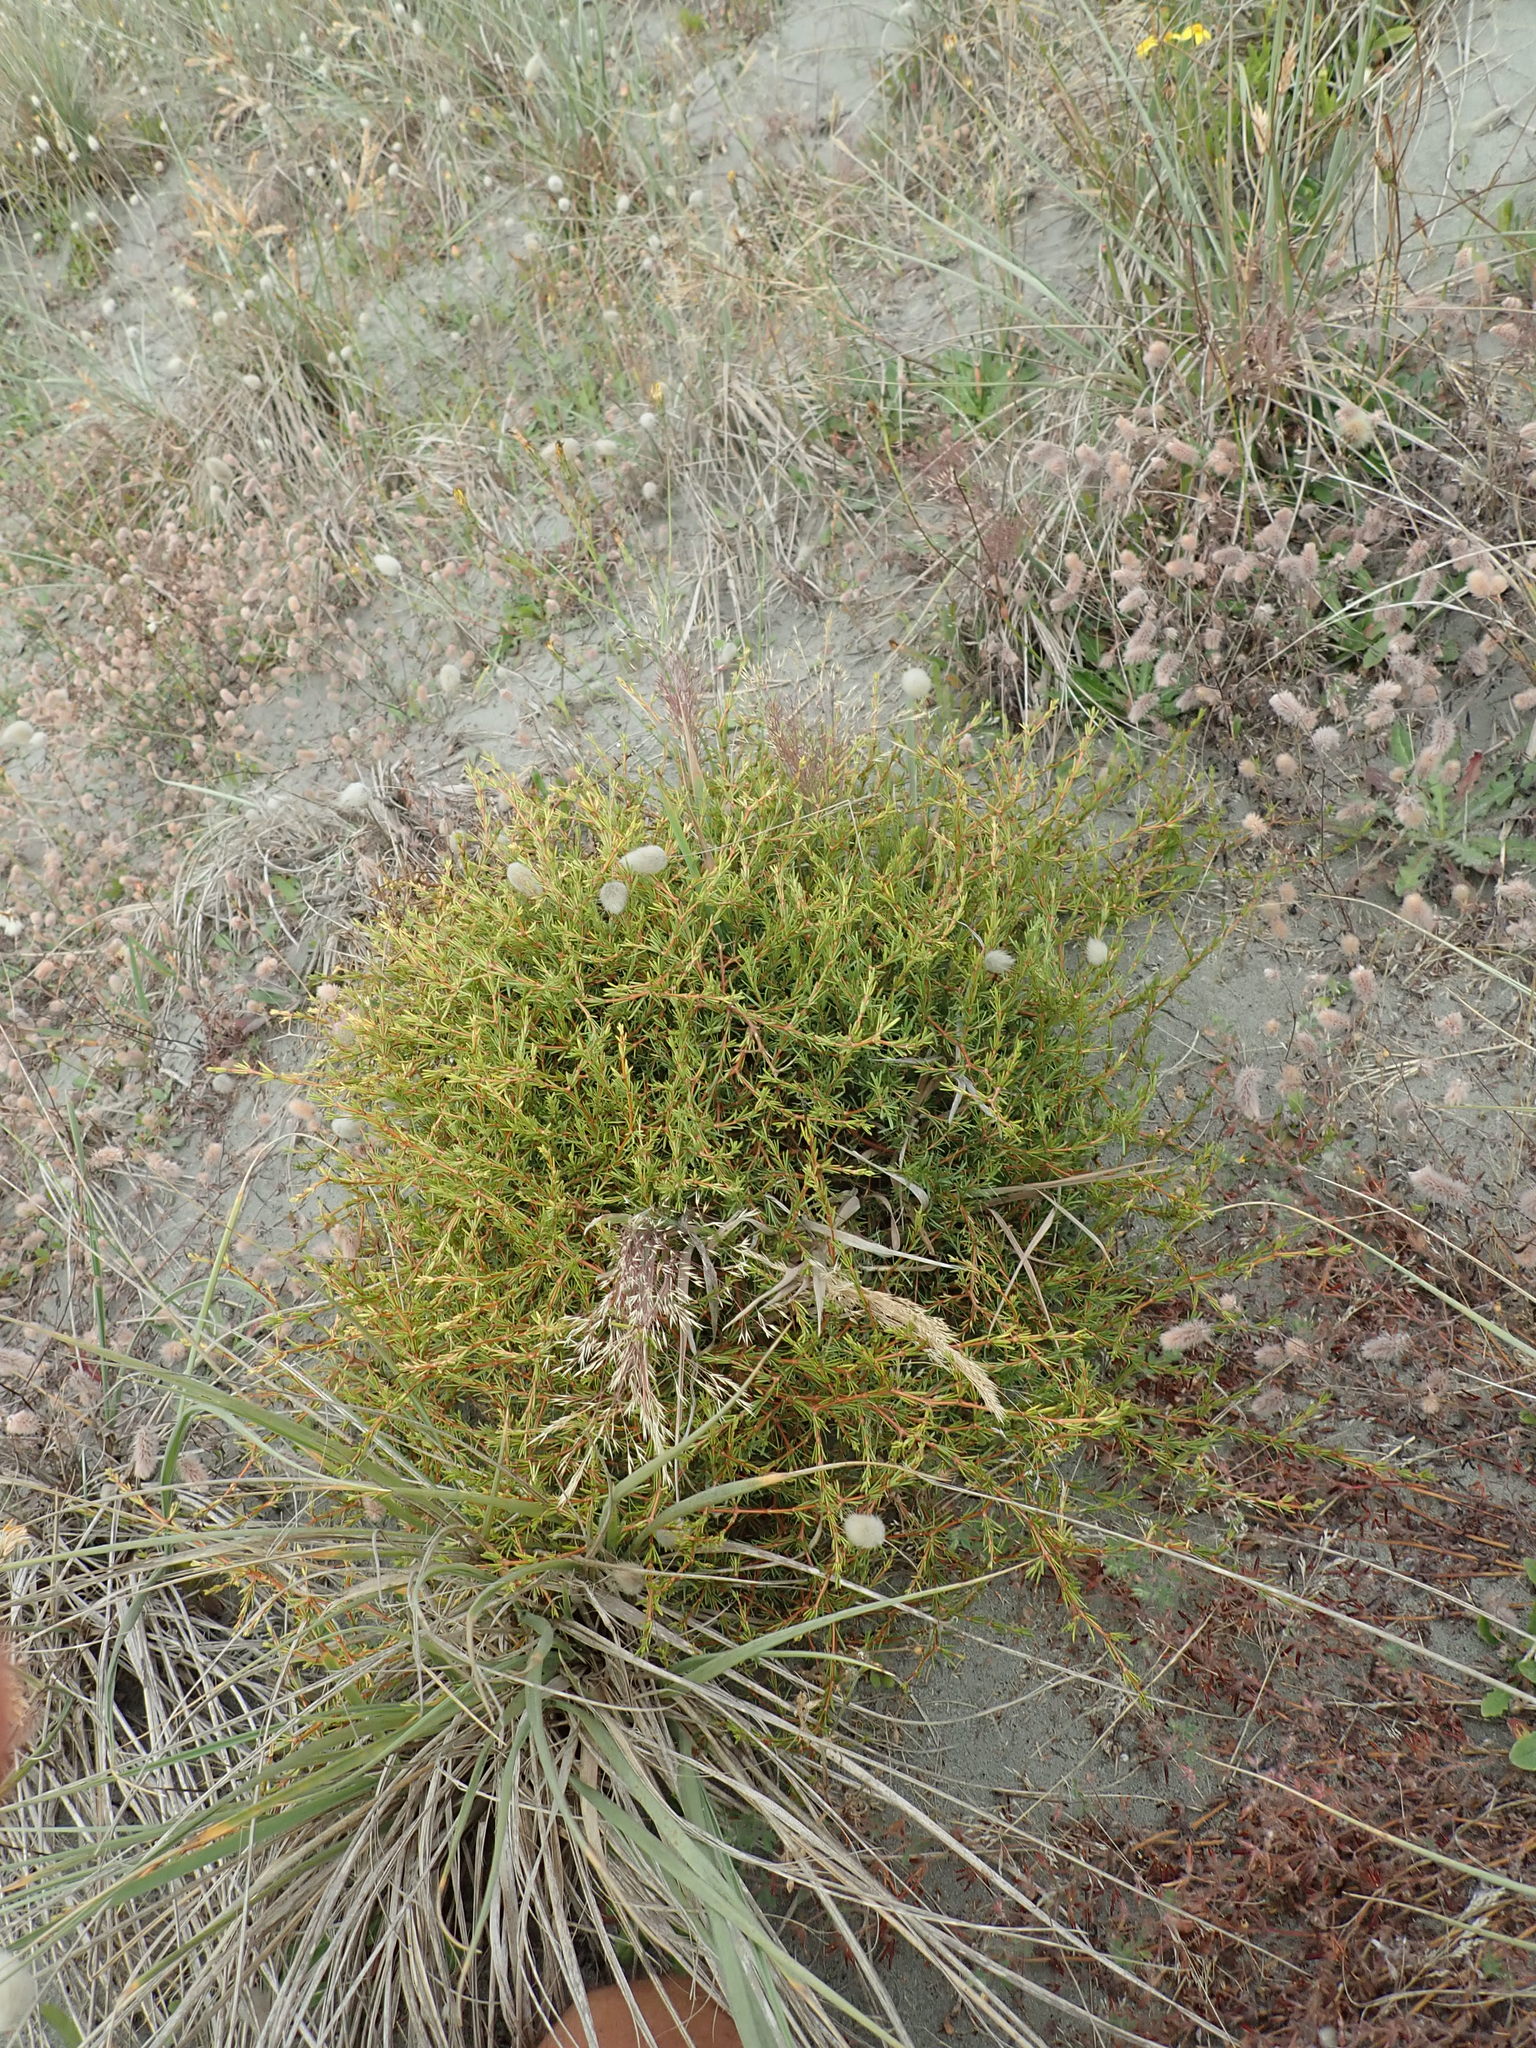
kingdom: Plantae
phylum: Tracheophyta
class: Magnoliopsida
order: Gentianales
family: Rubiaceae
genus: Coprosma
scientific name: Coprosma acerosa
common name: Sand coprosma
